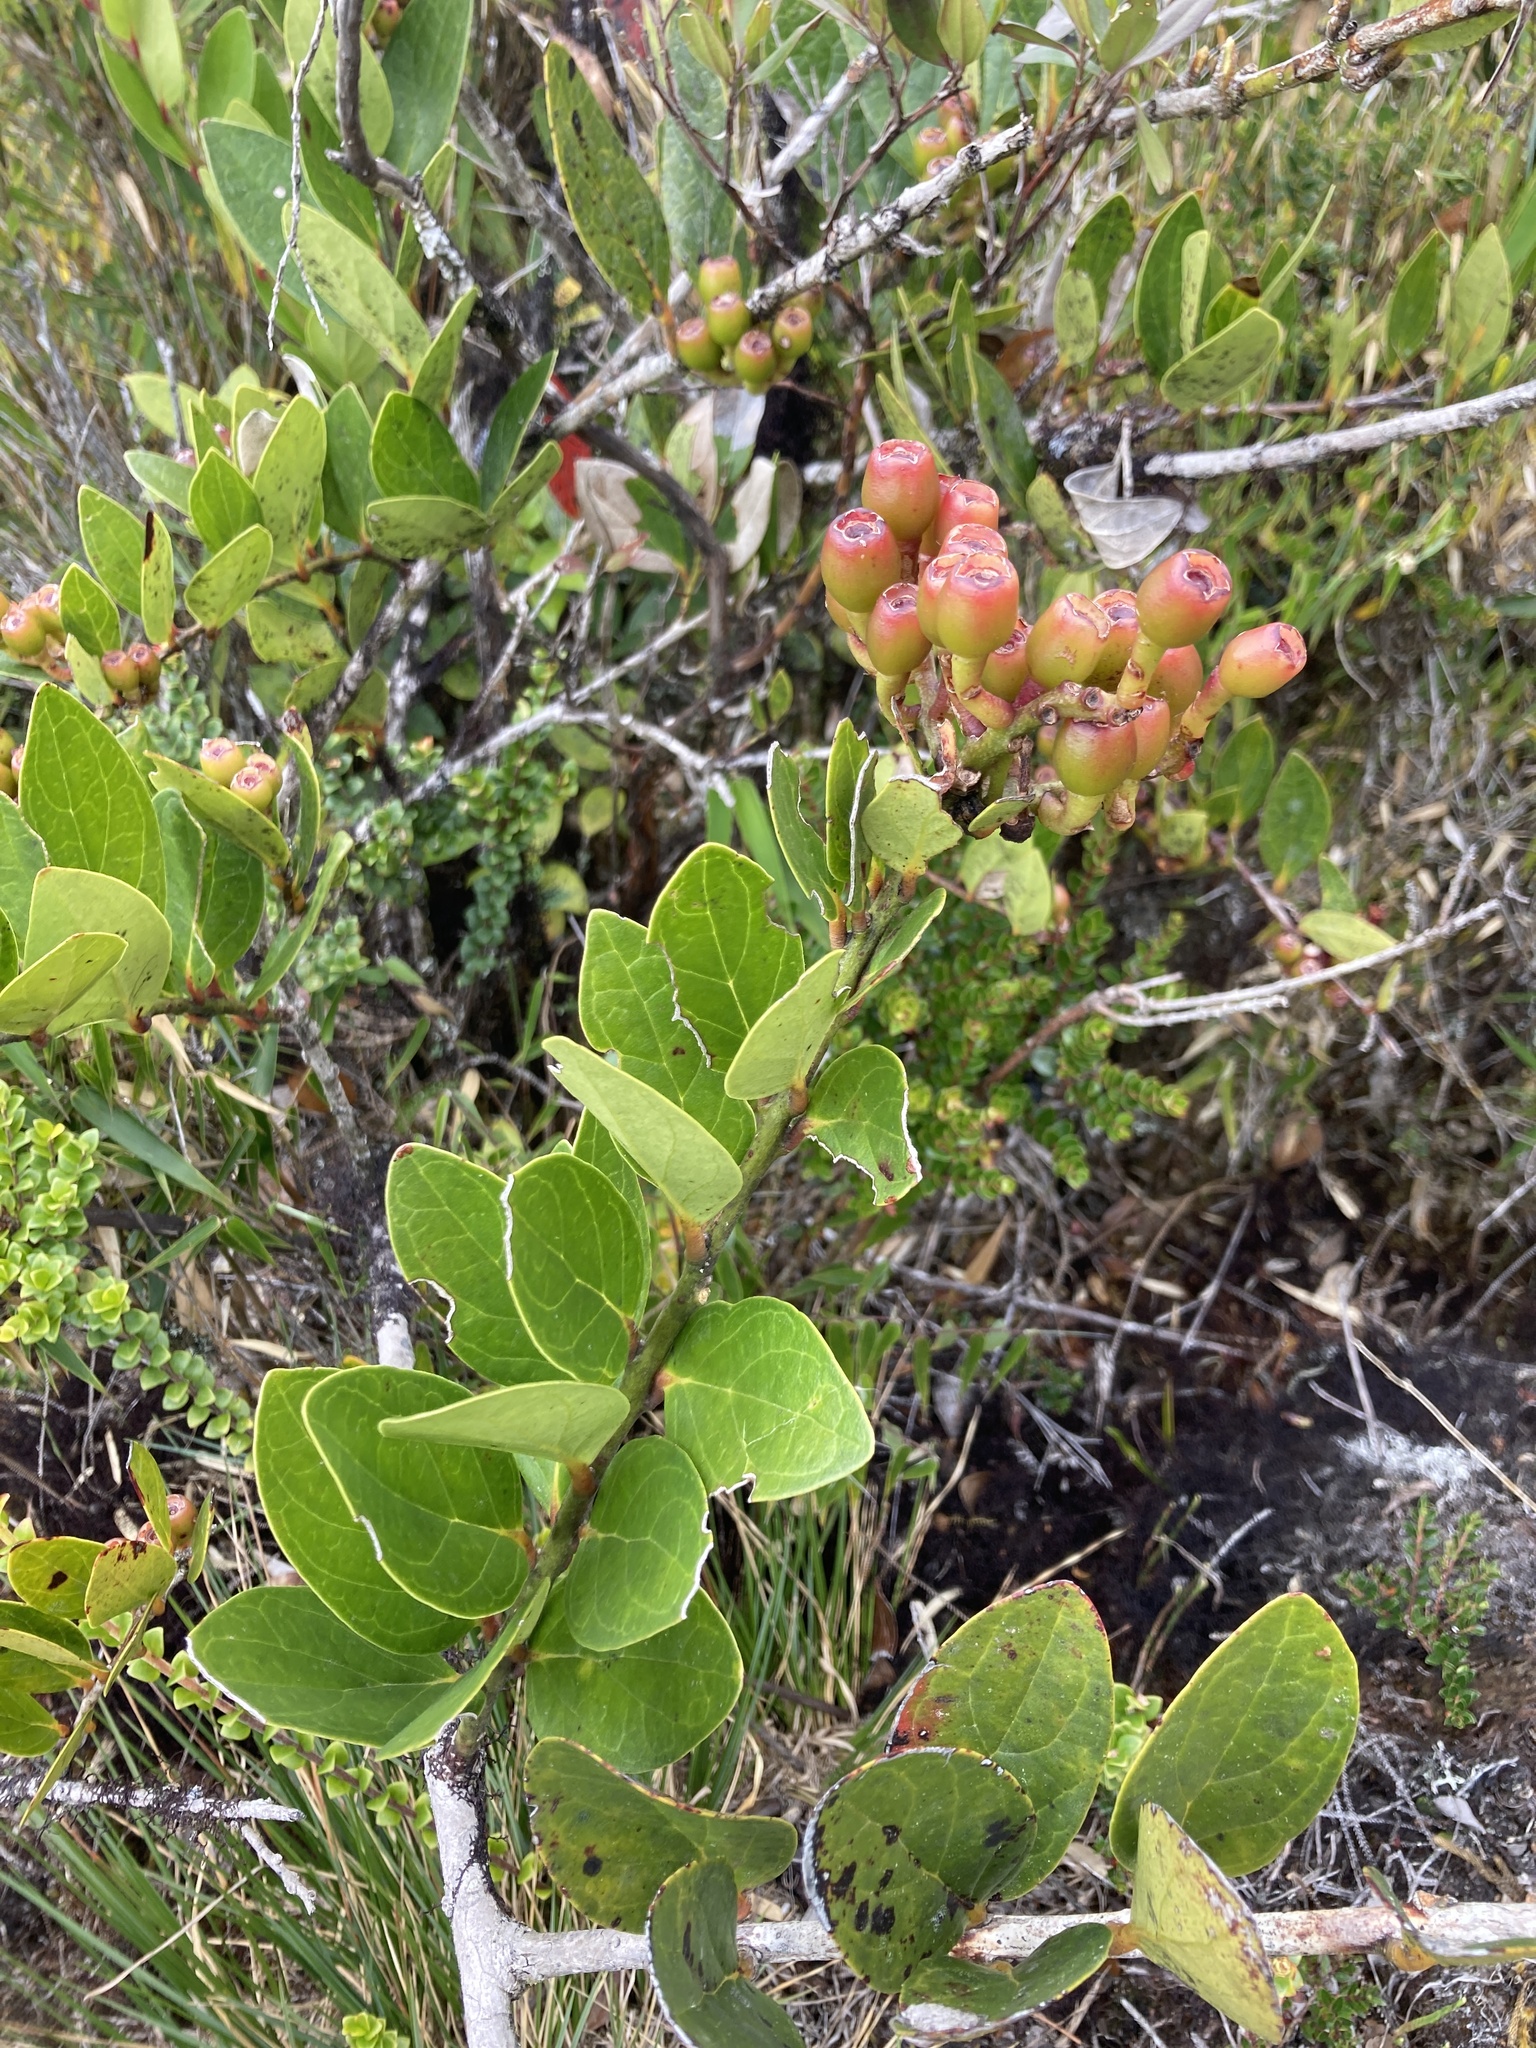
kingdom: Plantae
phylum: Tracheophyta
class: Magnoliopsida
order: Ericales
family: Ericaceae
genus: Macleania
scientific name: Macleania rupestris
